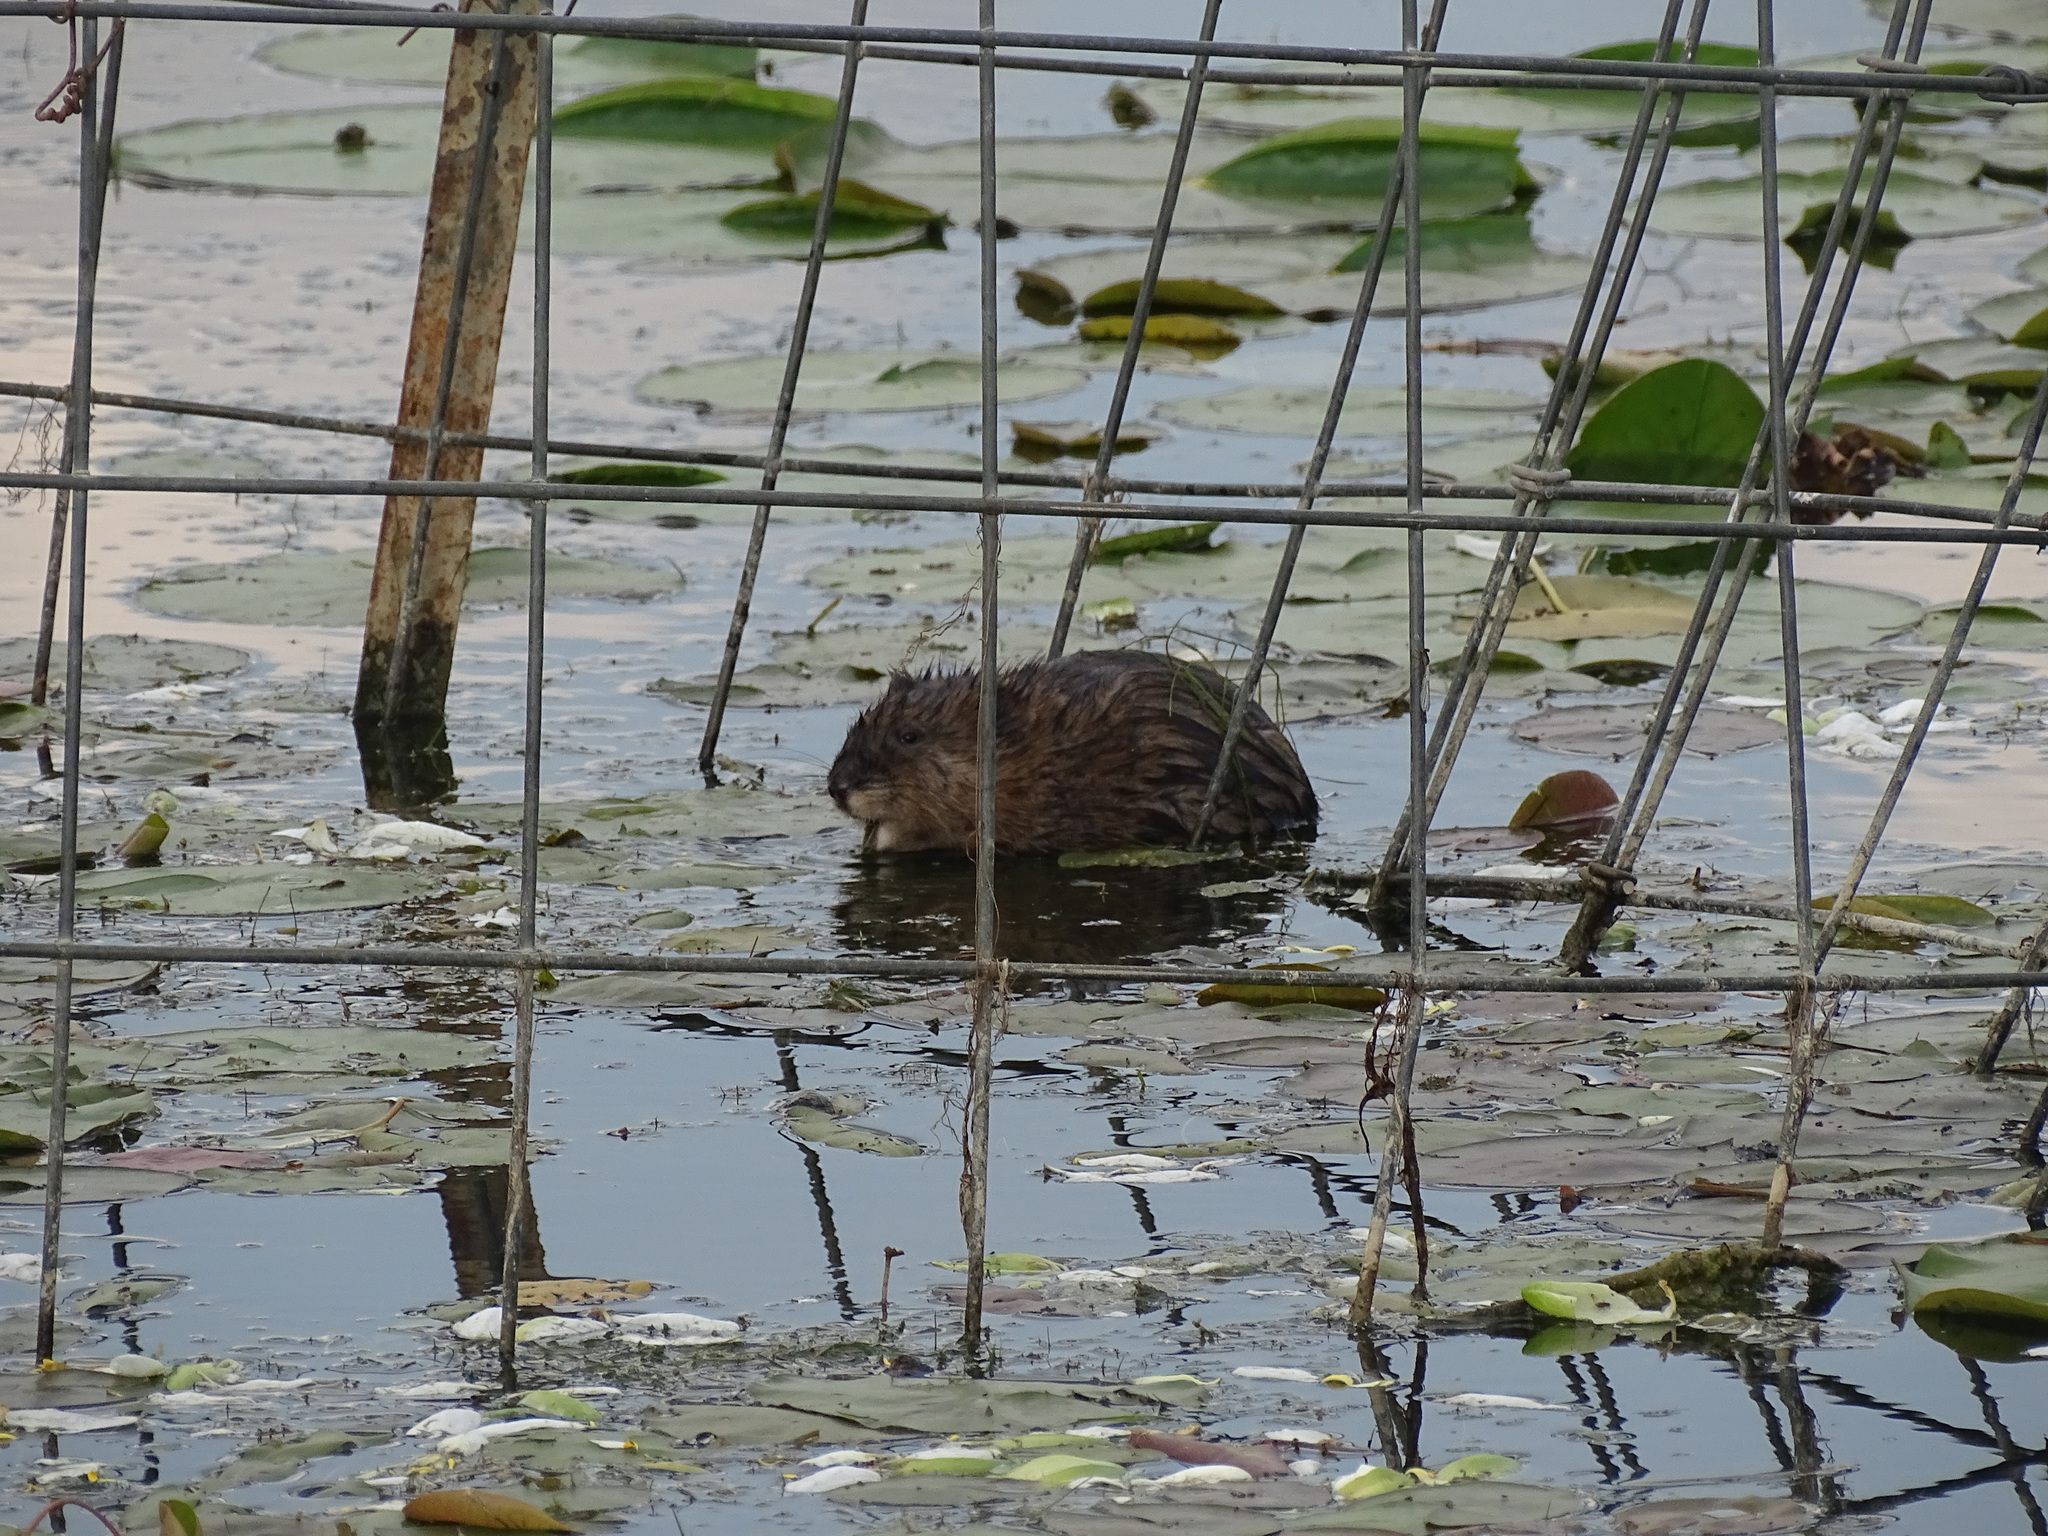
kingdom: Animalia
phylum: Chordata
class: Mammalia
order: Rodentia
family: Cricetidae
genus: Ondatra
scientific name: Ondatra zibethicus
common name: Muskrat
